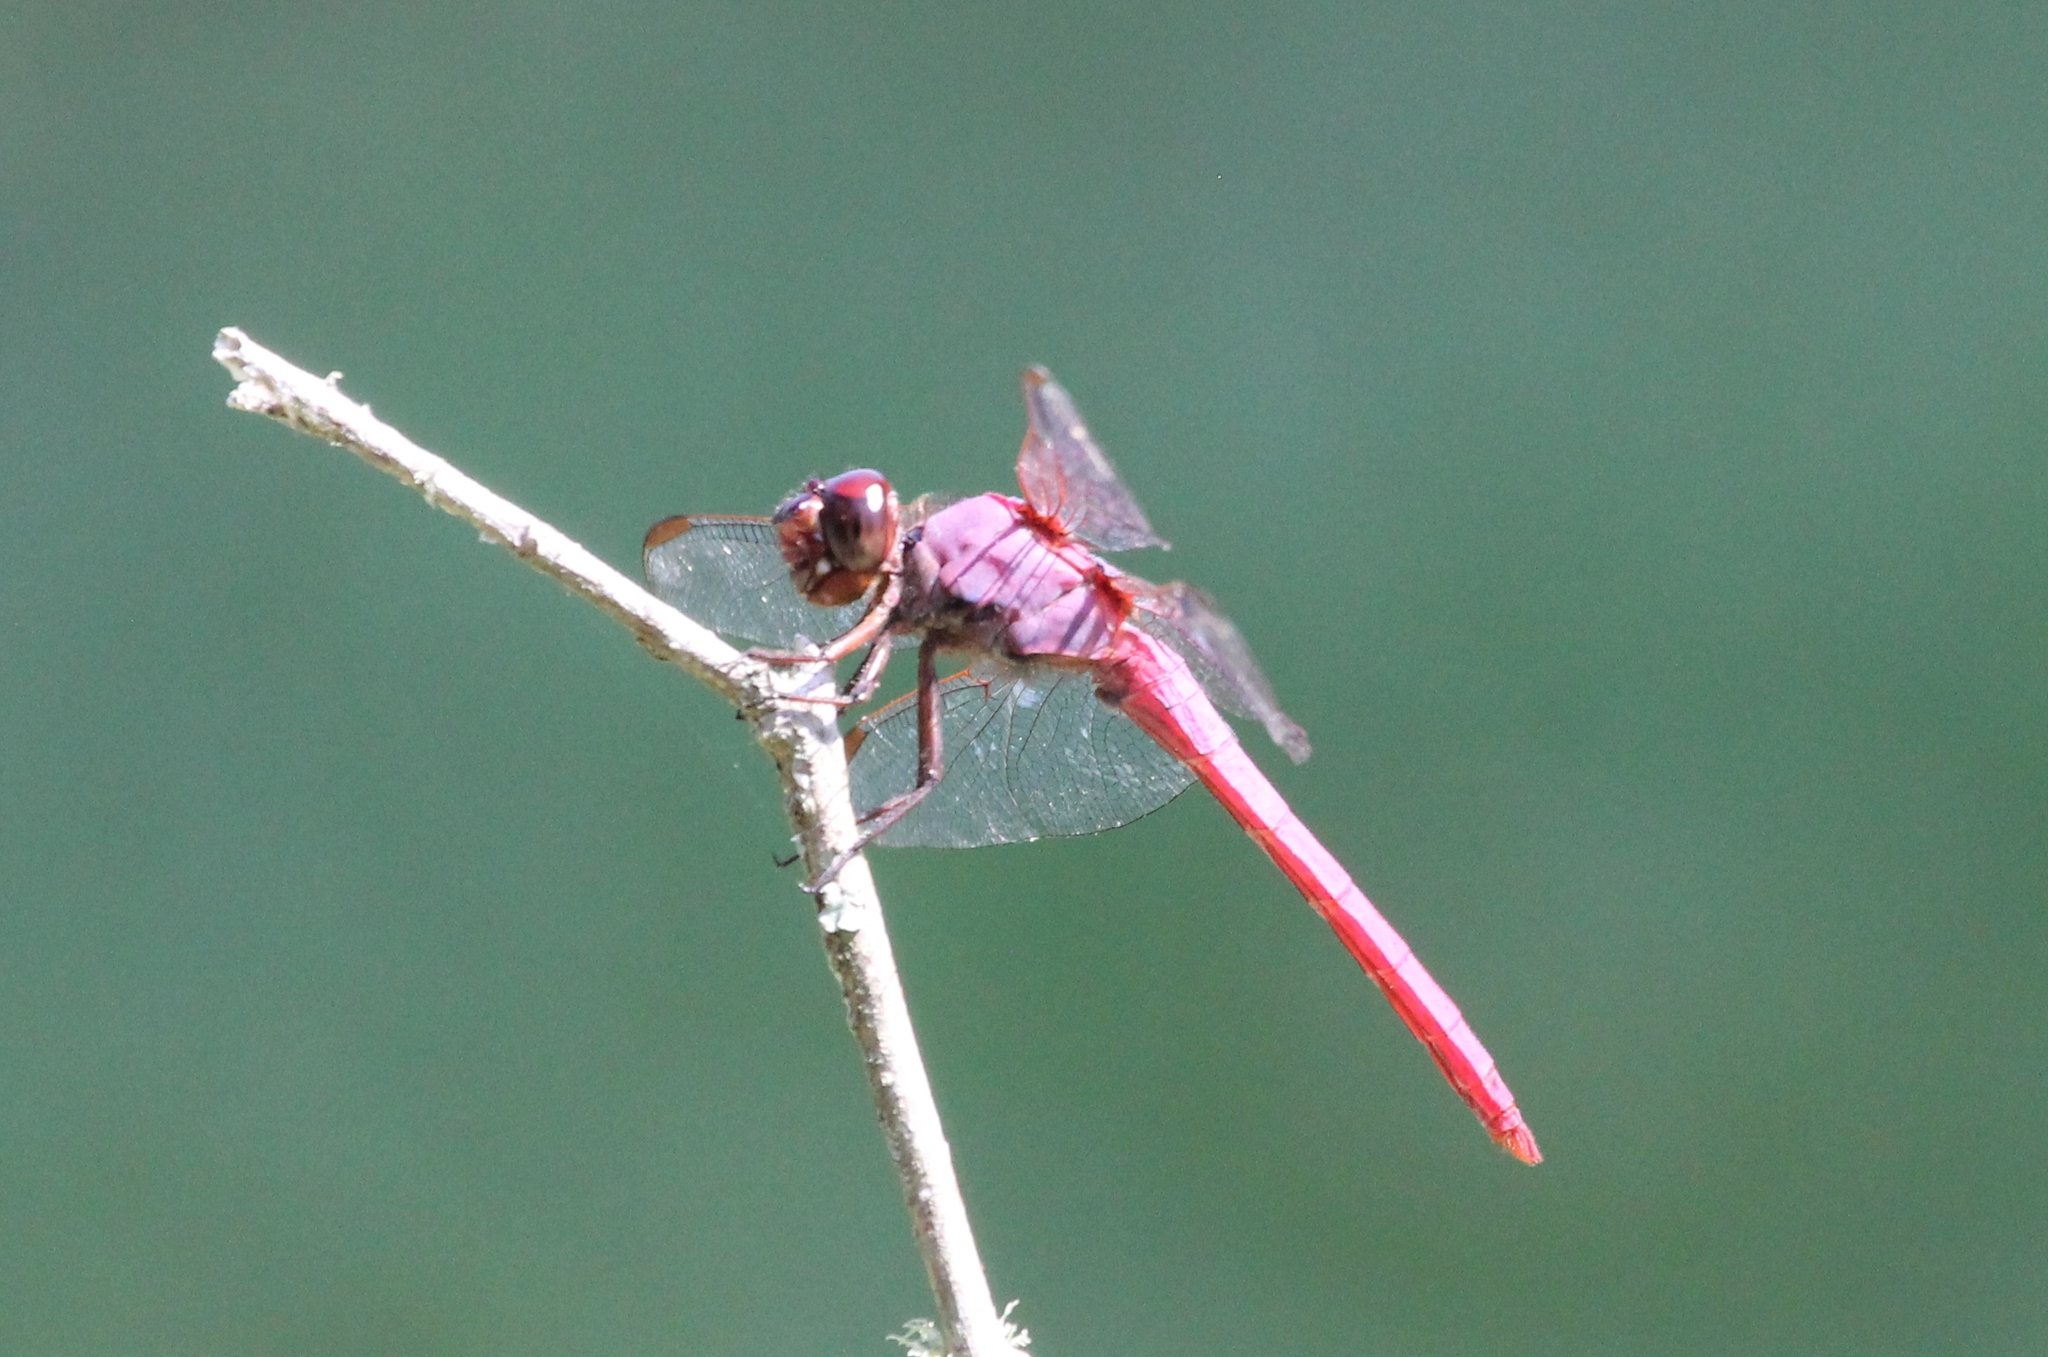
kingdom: Animalia
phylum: Arthropoda
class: Insecta
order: Odonata
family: Libellulidae
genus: Orthemis
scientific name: Orthemis ferruginea
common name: Roseate skimmer
